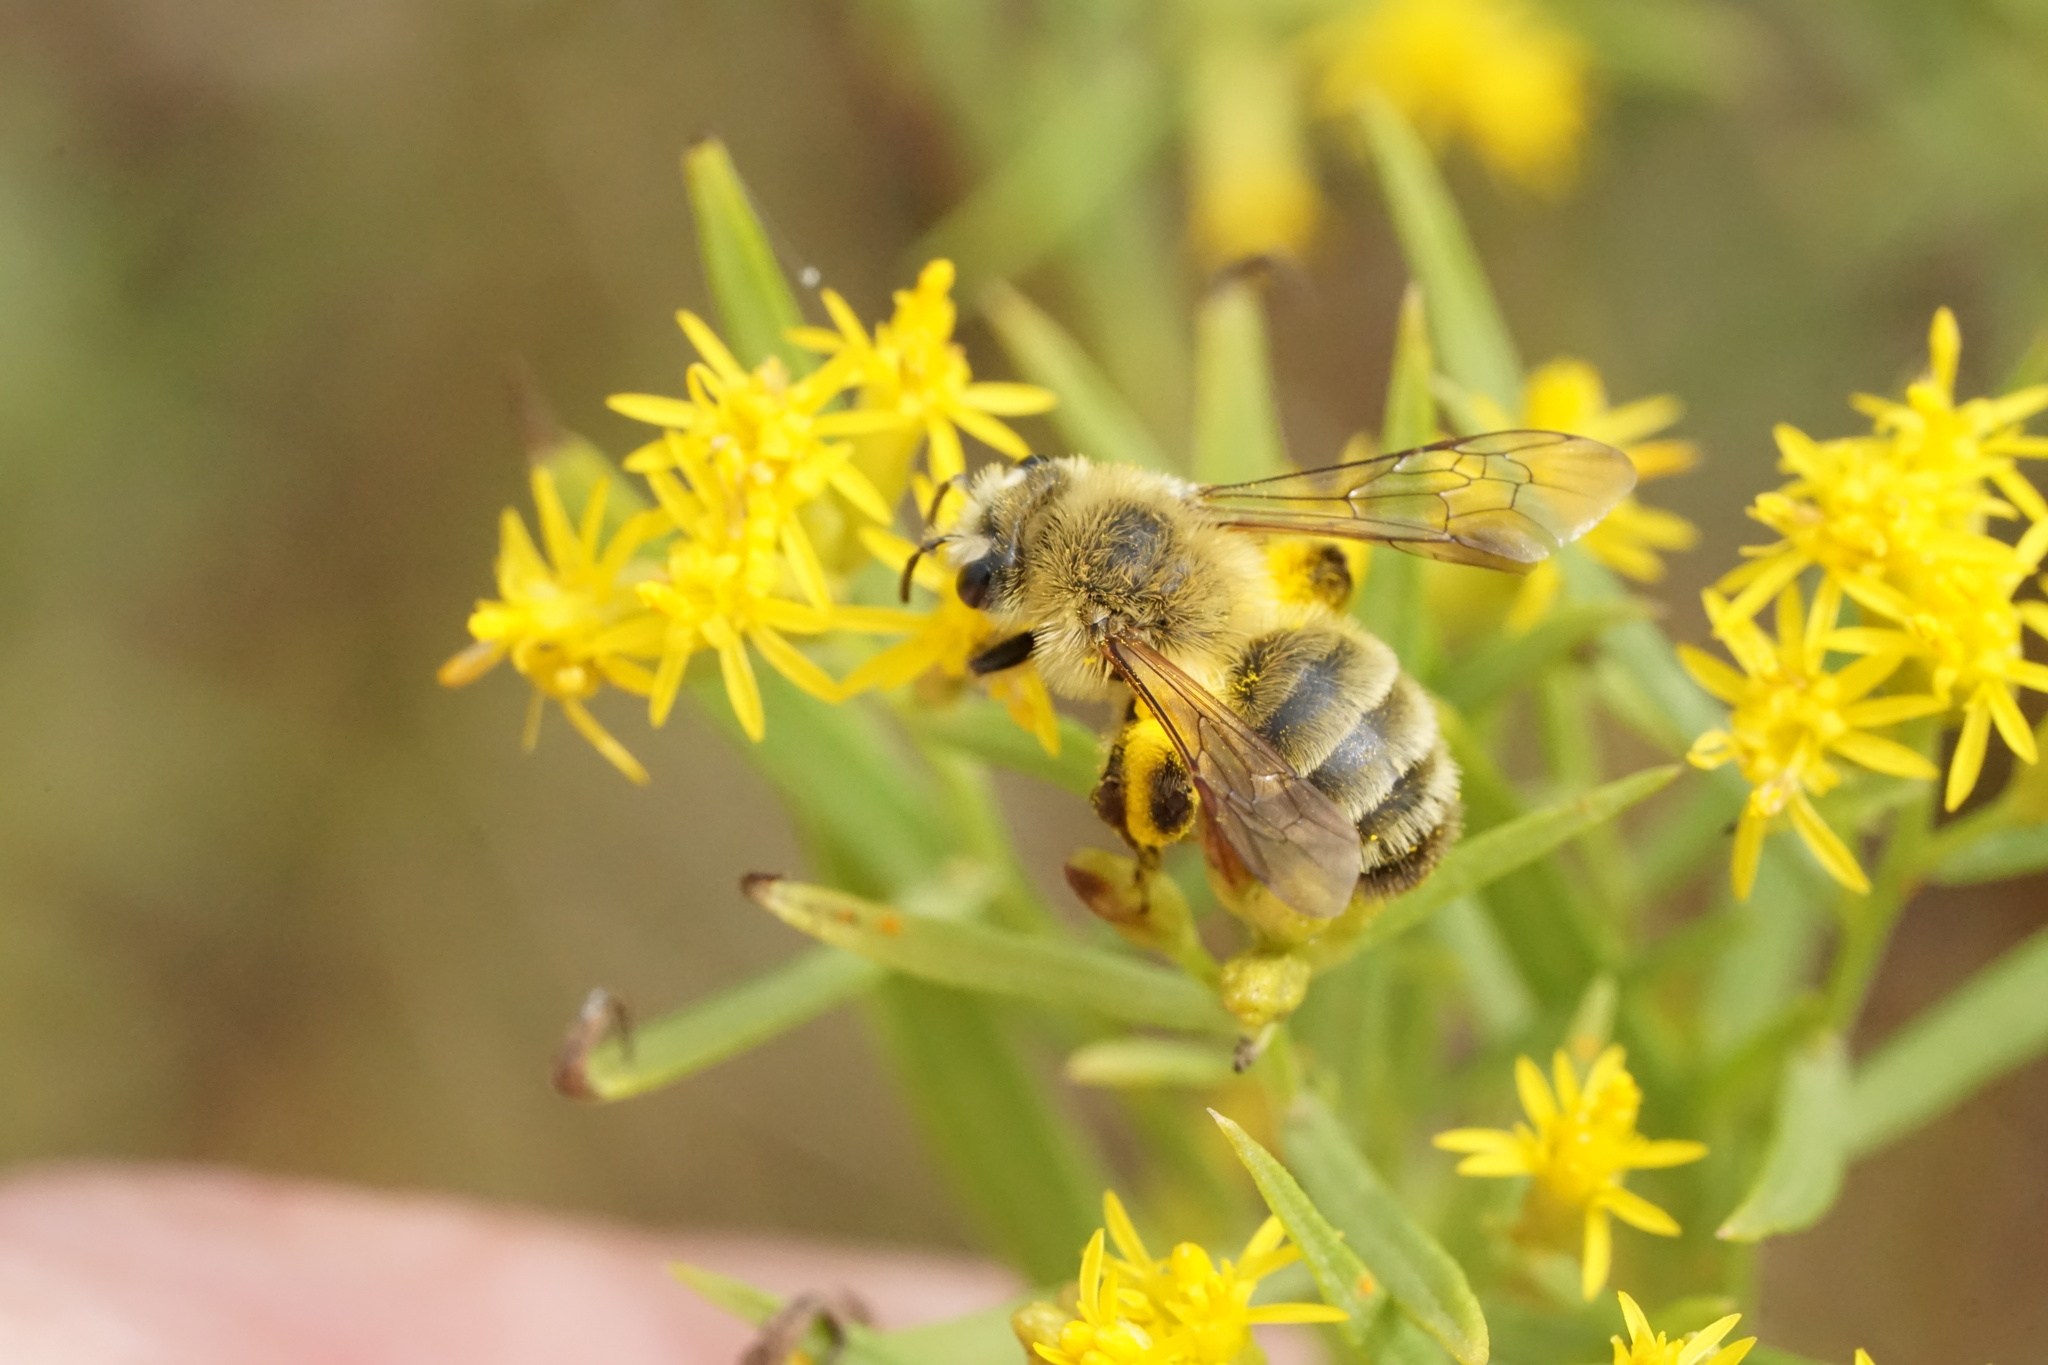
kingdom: Animalia
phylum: Arthropoda
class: Insecta
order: Hymenoptera
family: Andrenidae
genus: Andrena
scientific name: Andrena hirticincta
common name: Hairy-banded mining bee
